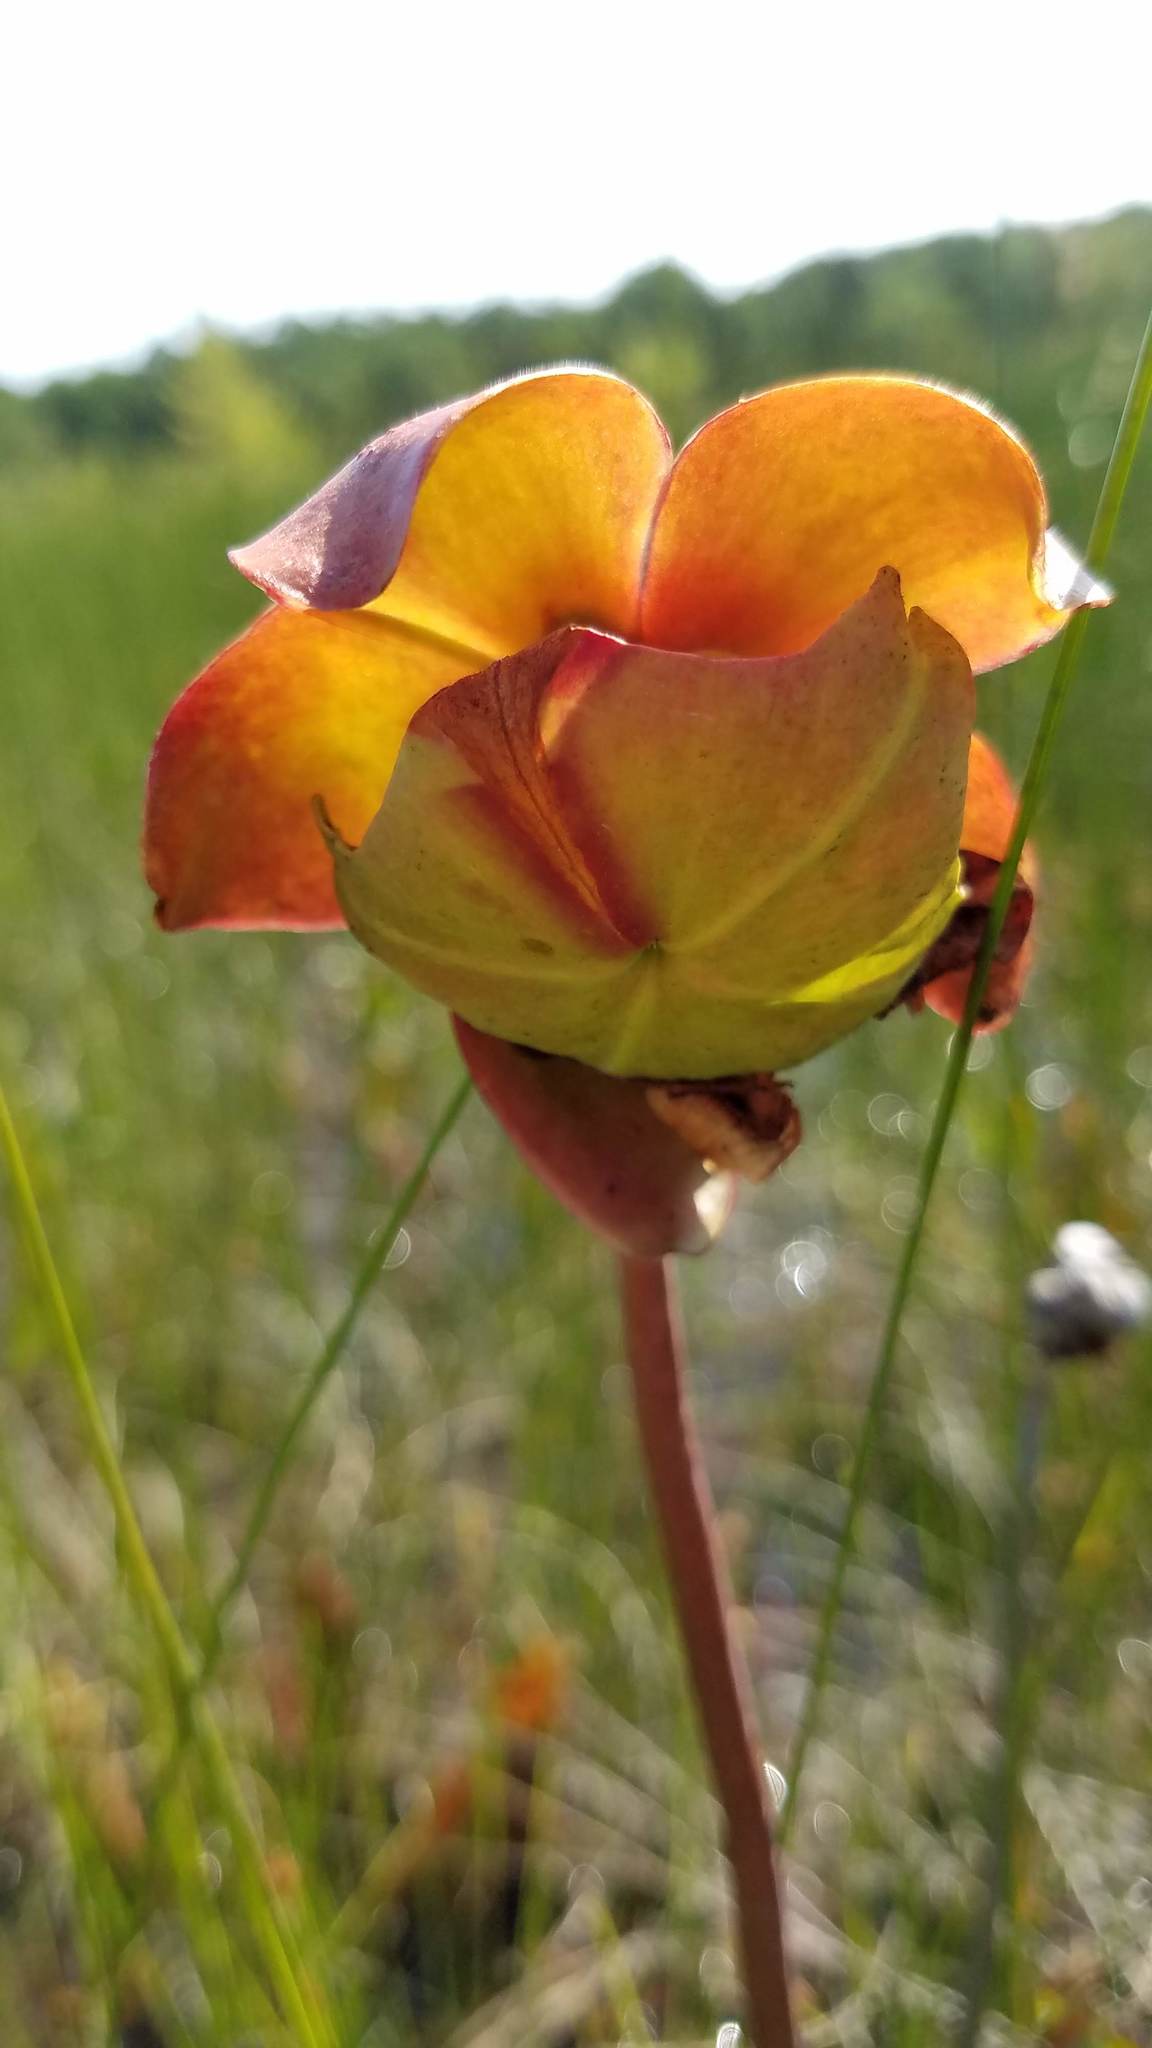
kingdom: Plantae
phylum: Tracheophyta
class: Magnoliopsida
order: Ericales
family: Sarraceniaceae
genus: Sarracenia
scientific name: Sarracenia purpurea
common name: Pitcherplant
